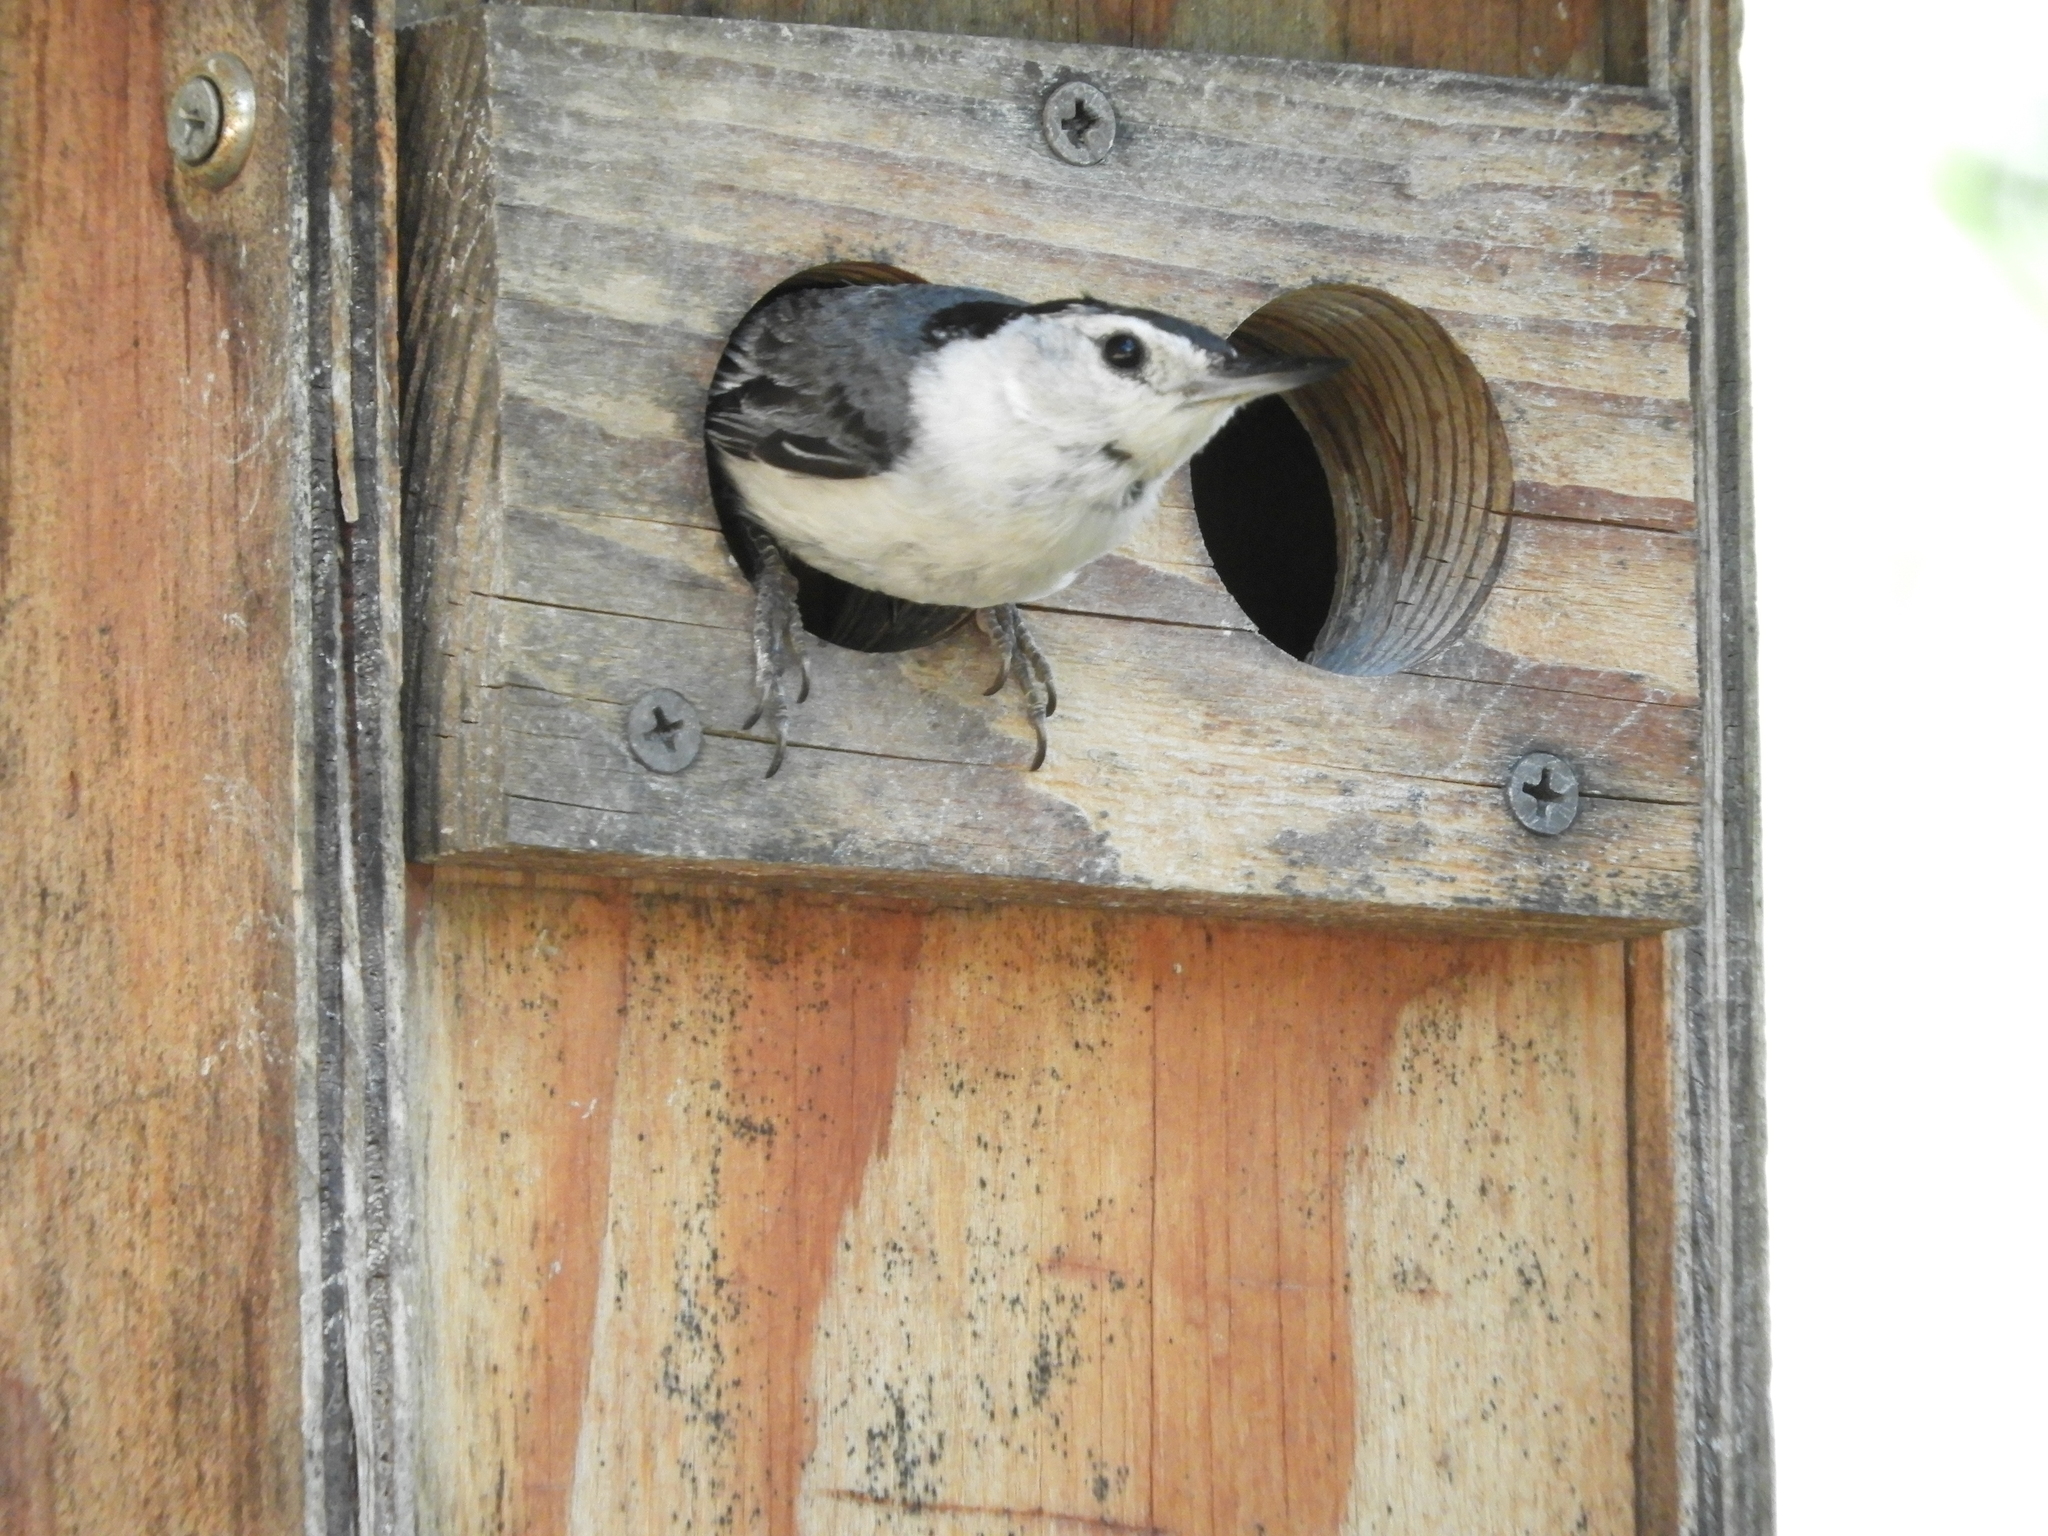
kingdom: Animalia
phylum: Chordata
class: Aves
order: Passeriformes
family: Sittidae
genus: Sitta
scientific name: Sitta carolinensis
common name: White-breasted nuthatch
